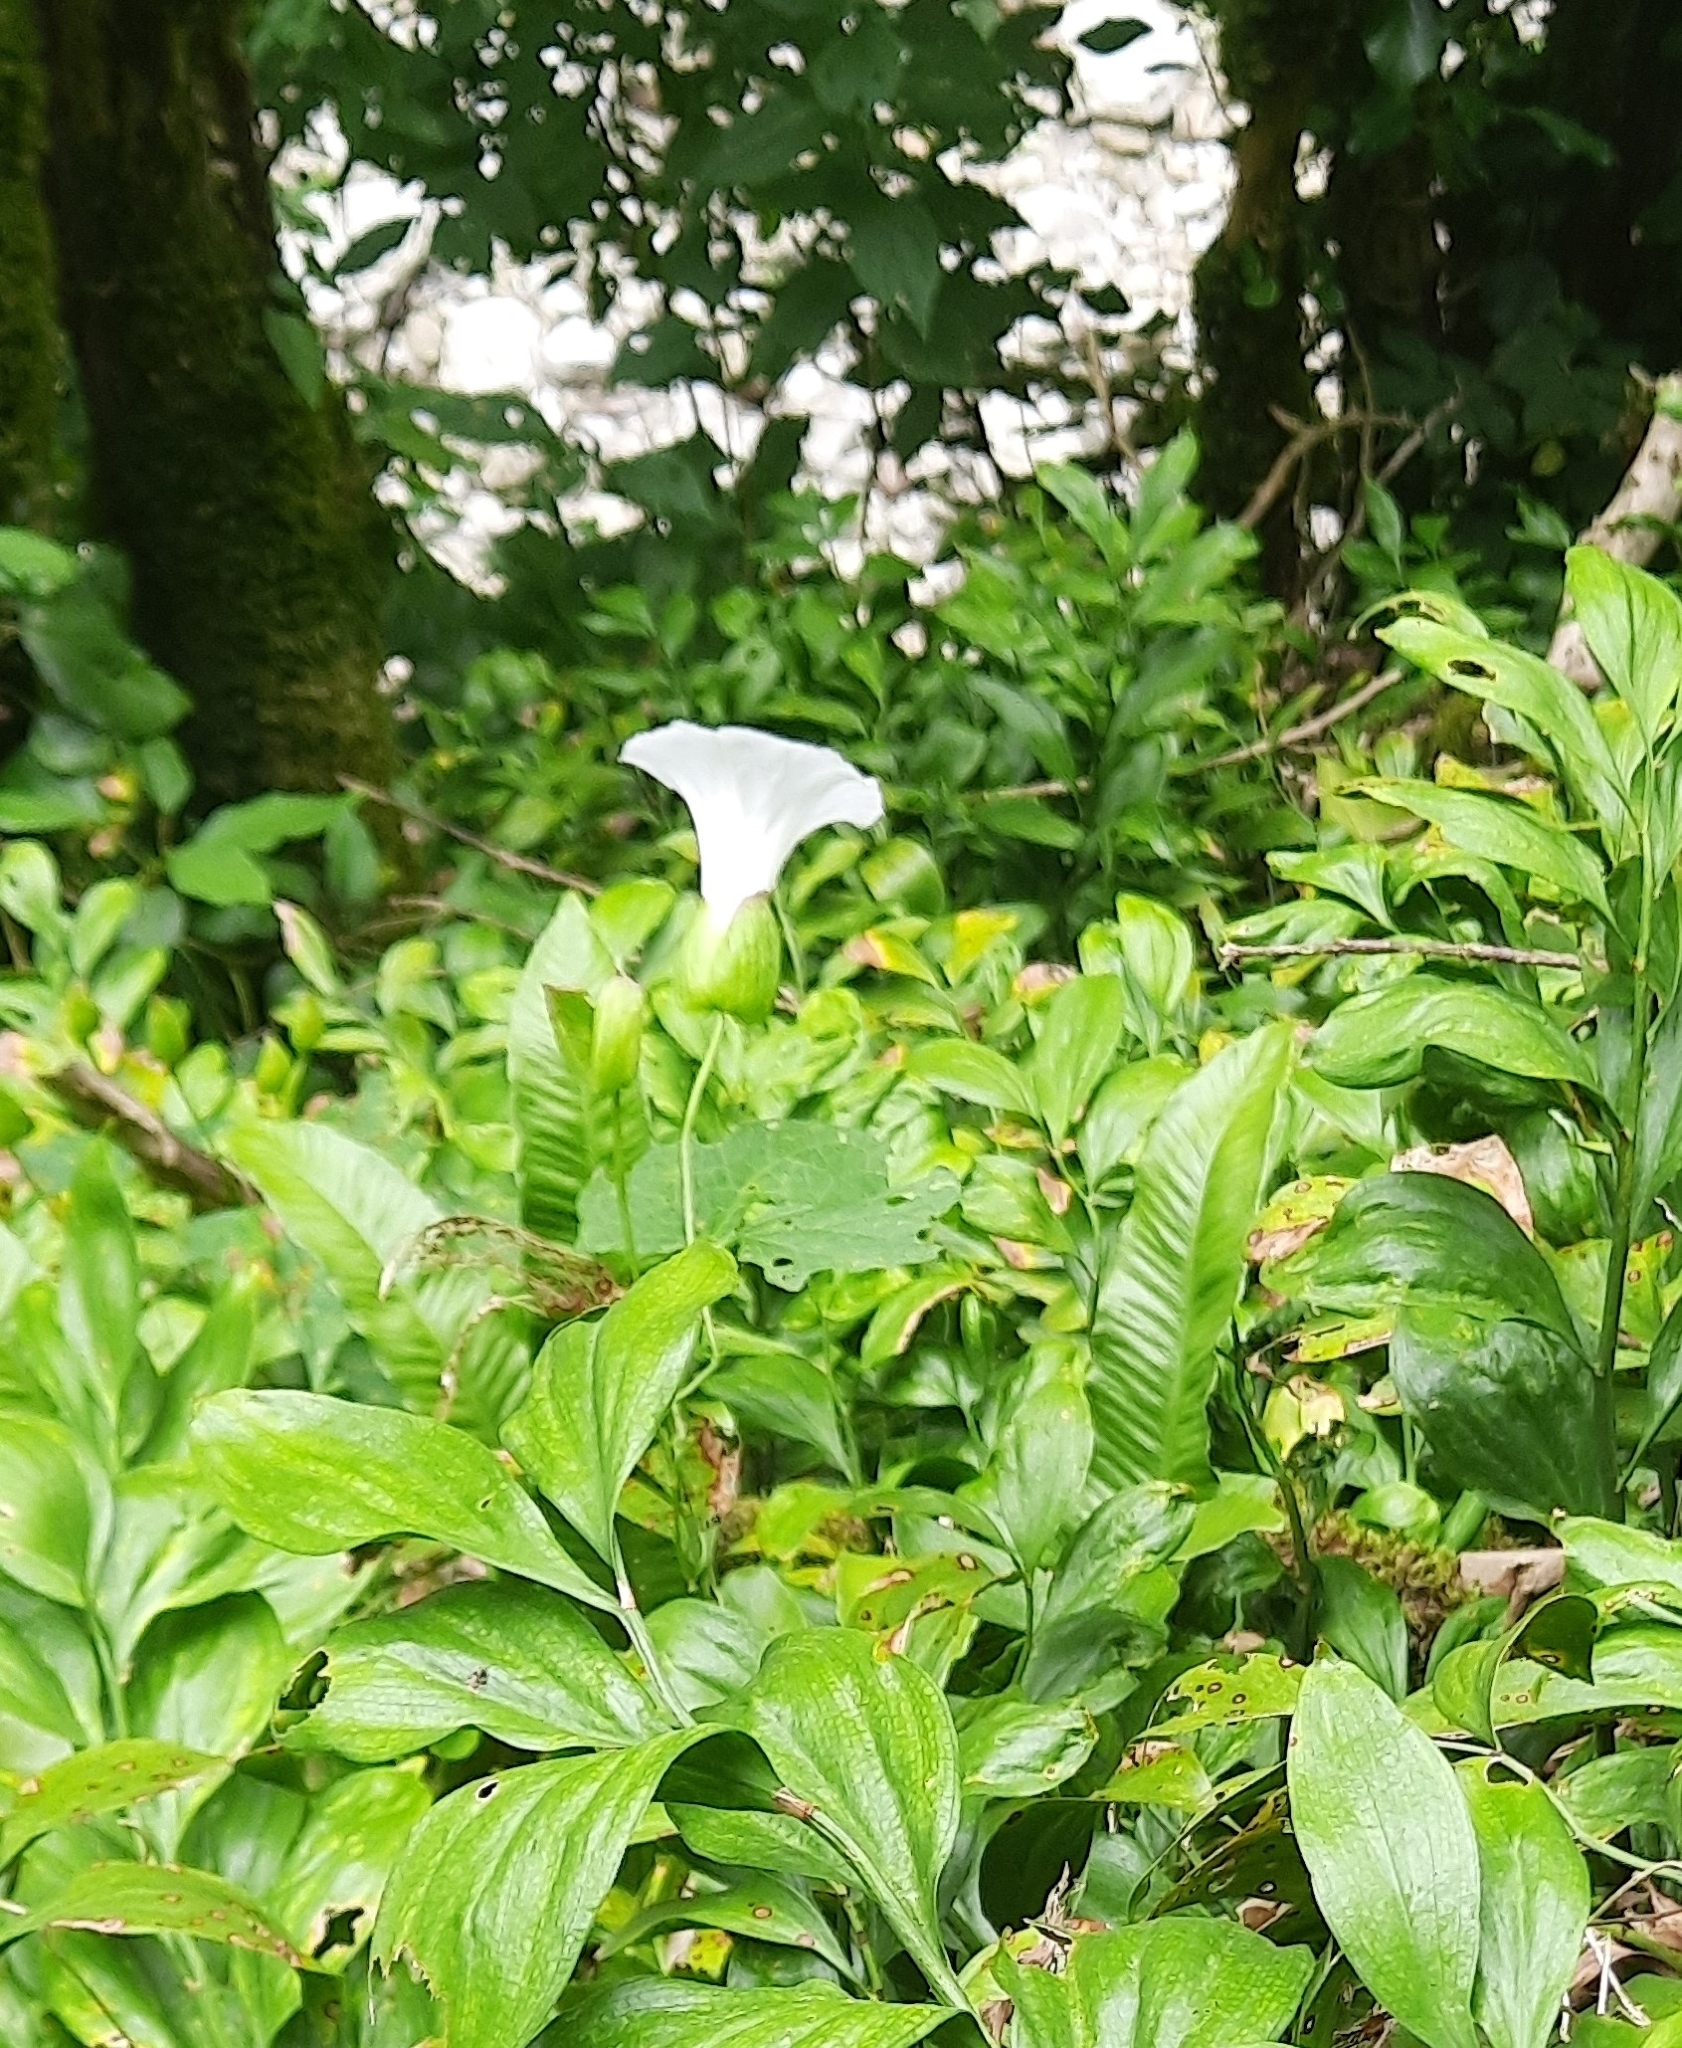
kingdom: Plantae
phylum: Tracheophyta
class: Magnoliopsida
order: Solanales
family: Convolvulaceae
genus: Calystegia
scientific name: Calystegia sepium
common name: Hedge bindweed
